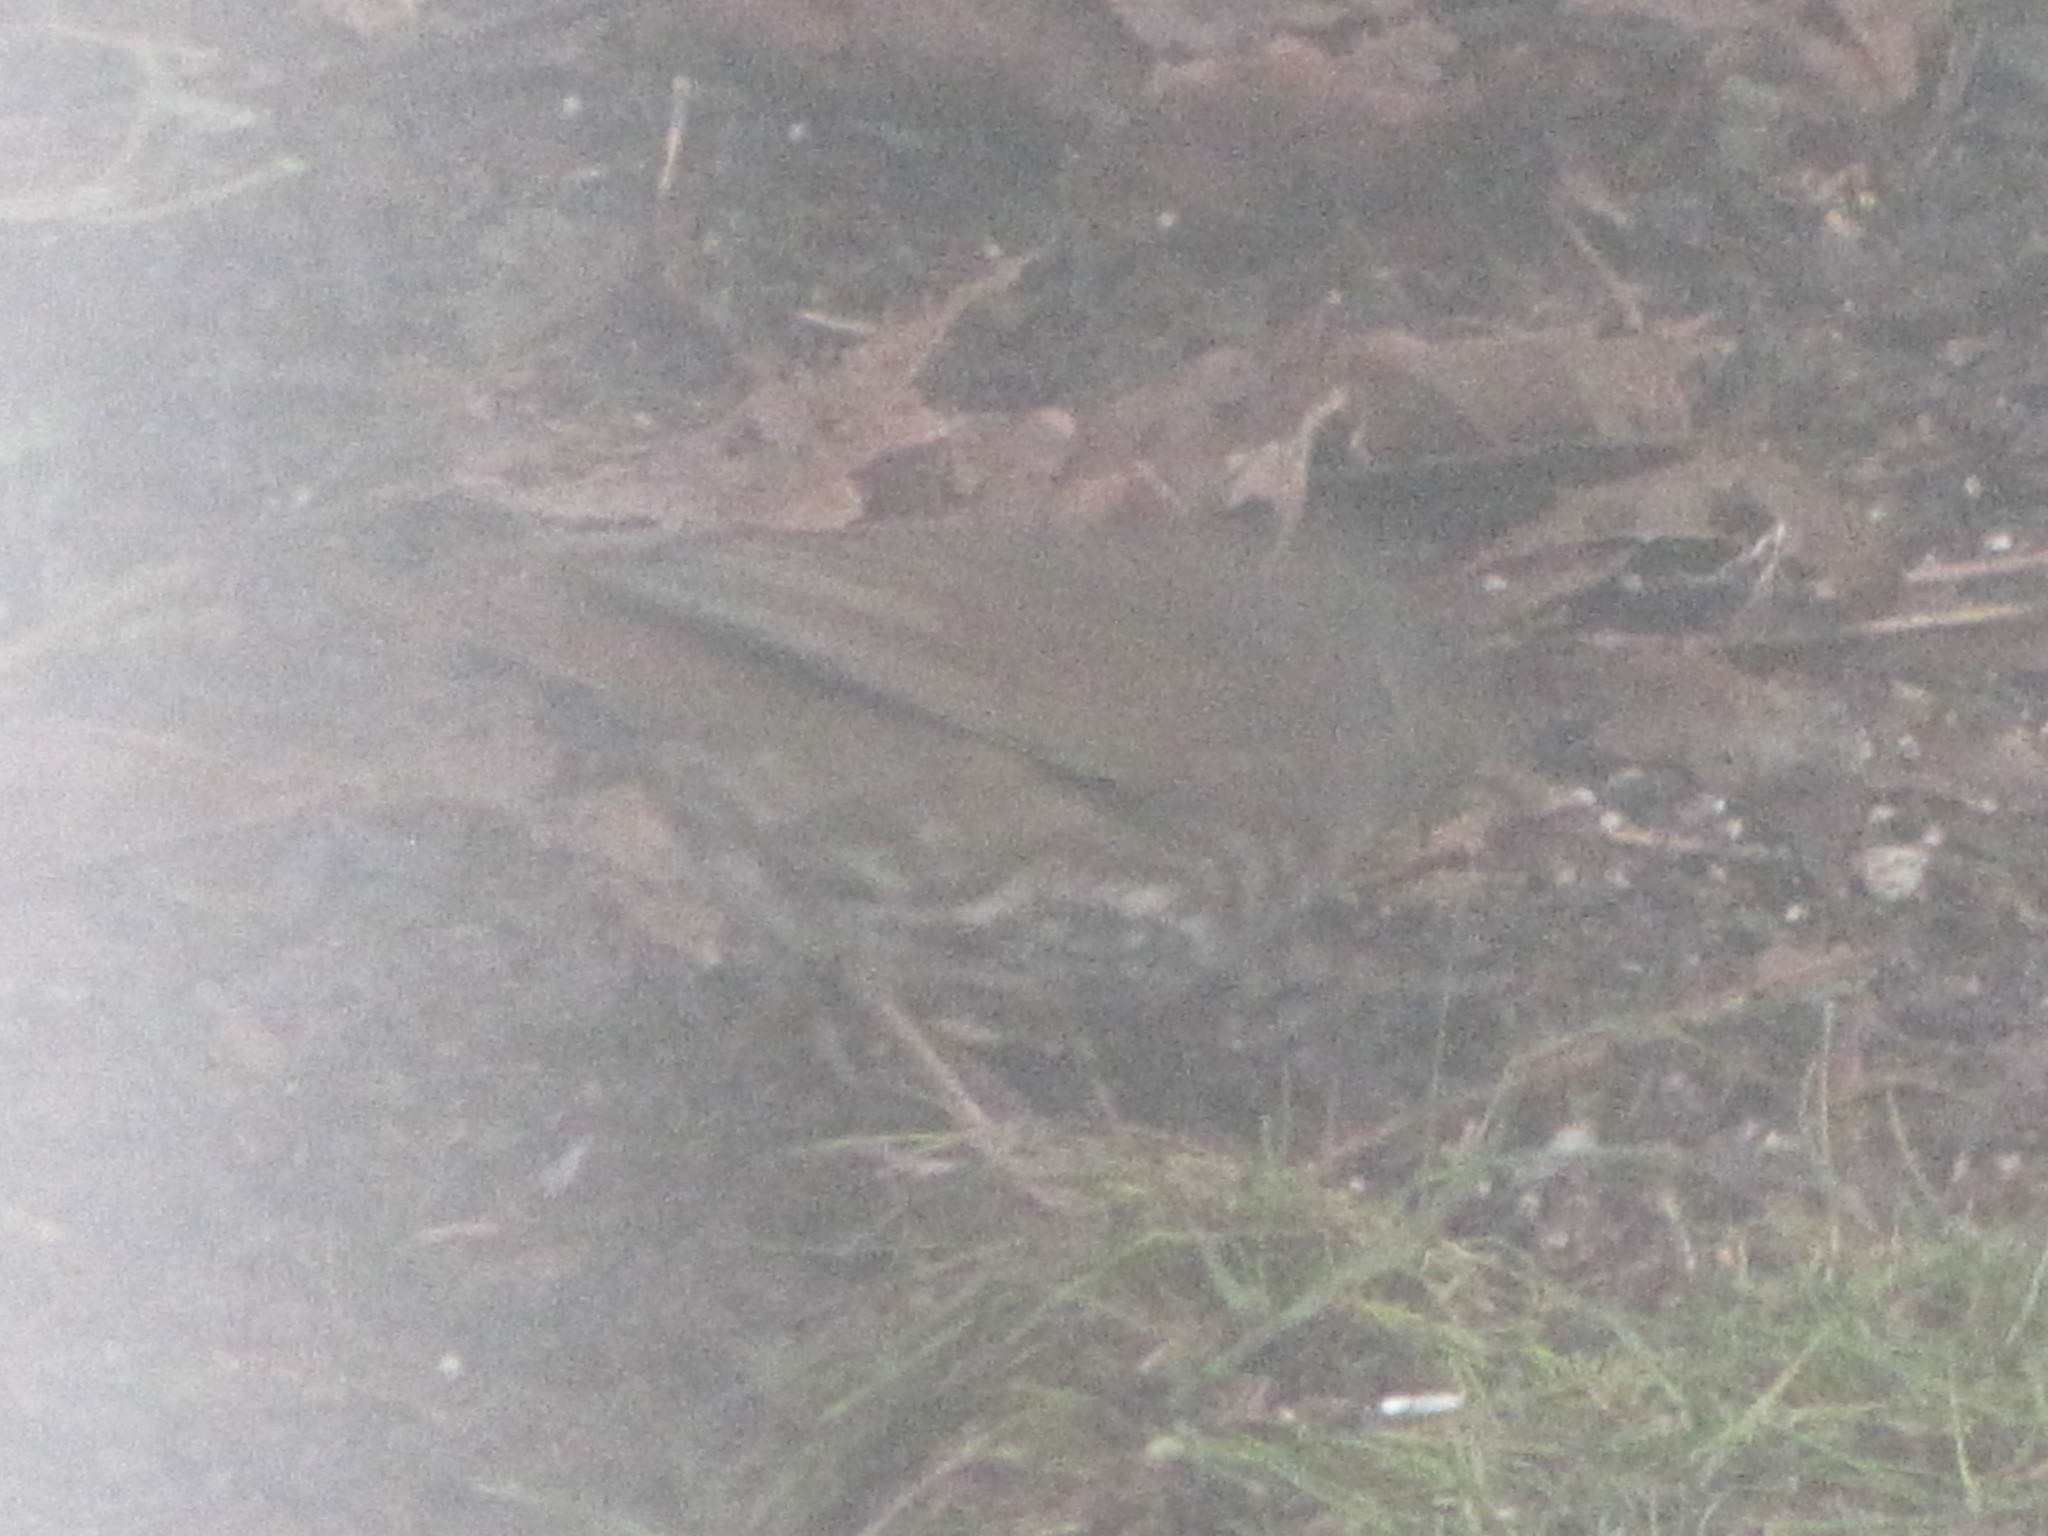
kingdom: Animalia
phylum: Chordata
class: Aves
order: Passeriformes
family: Passerellidae
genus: Passerella
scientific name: Passerella iliaca
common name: Fox sparrow
